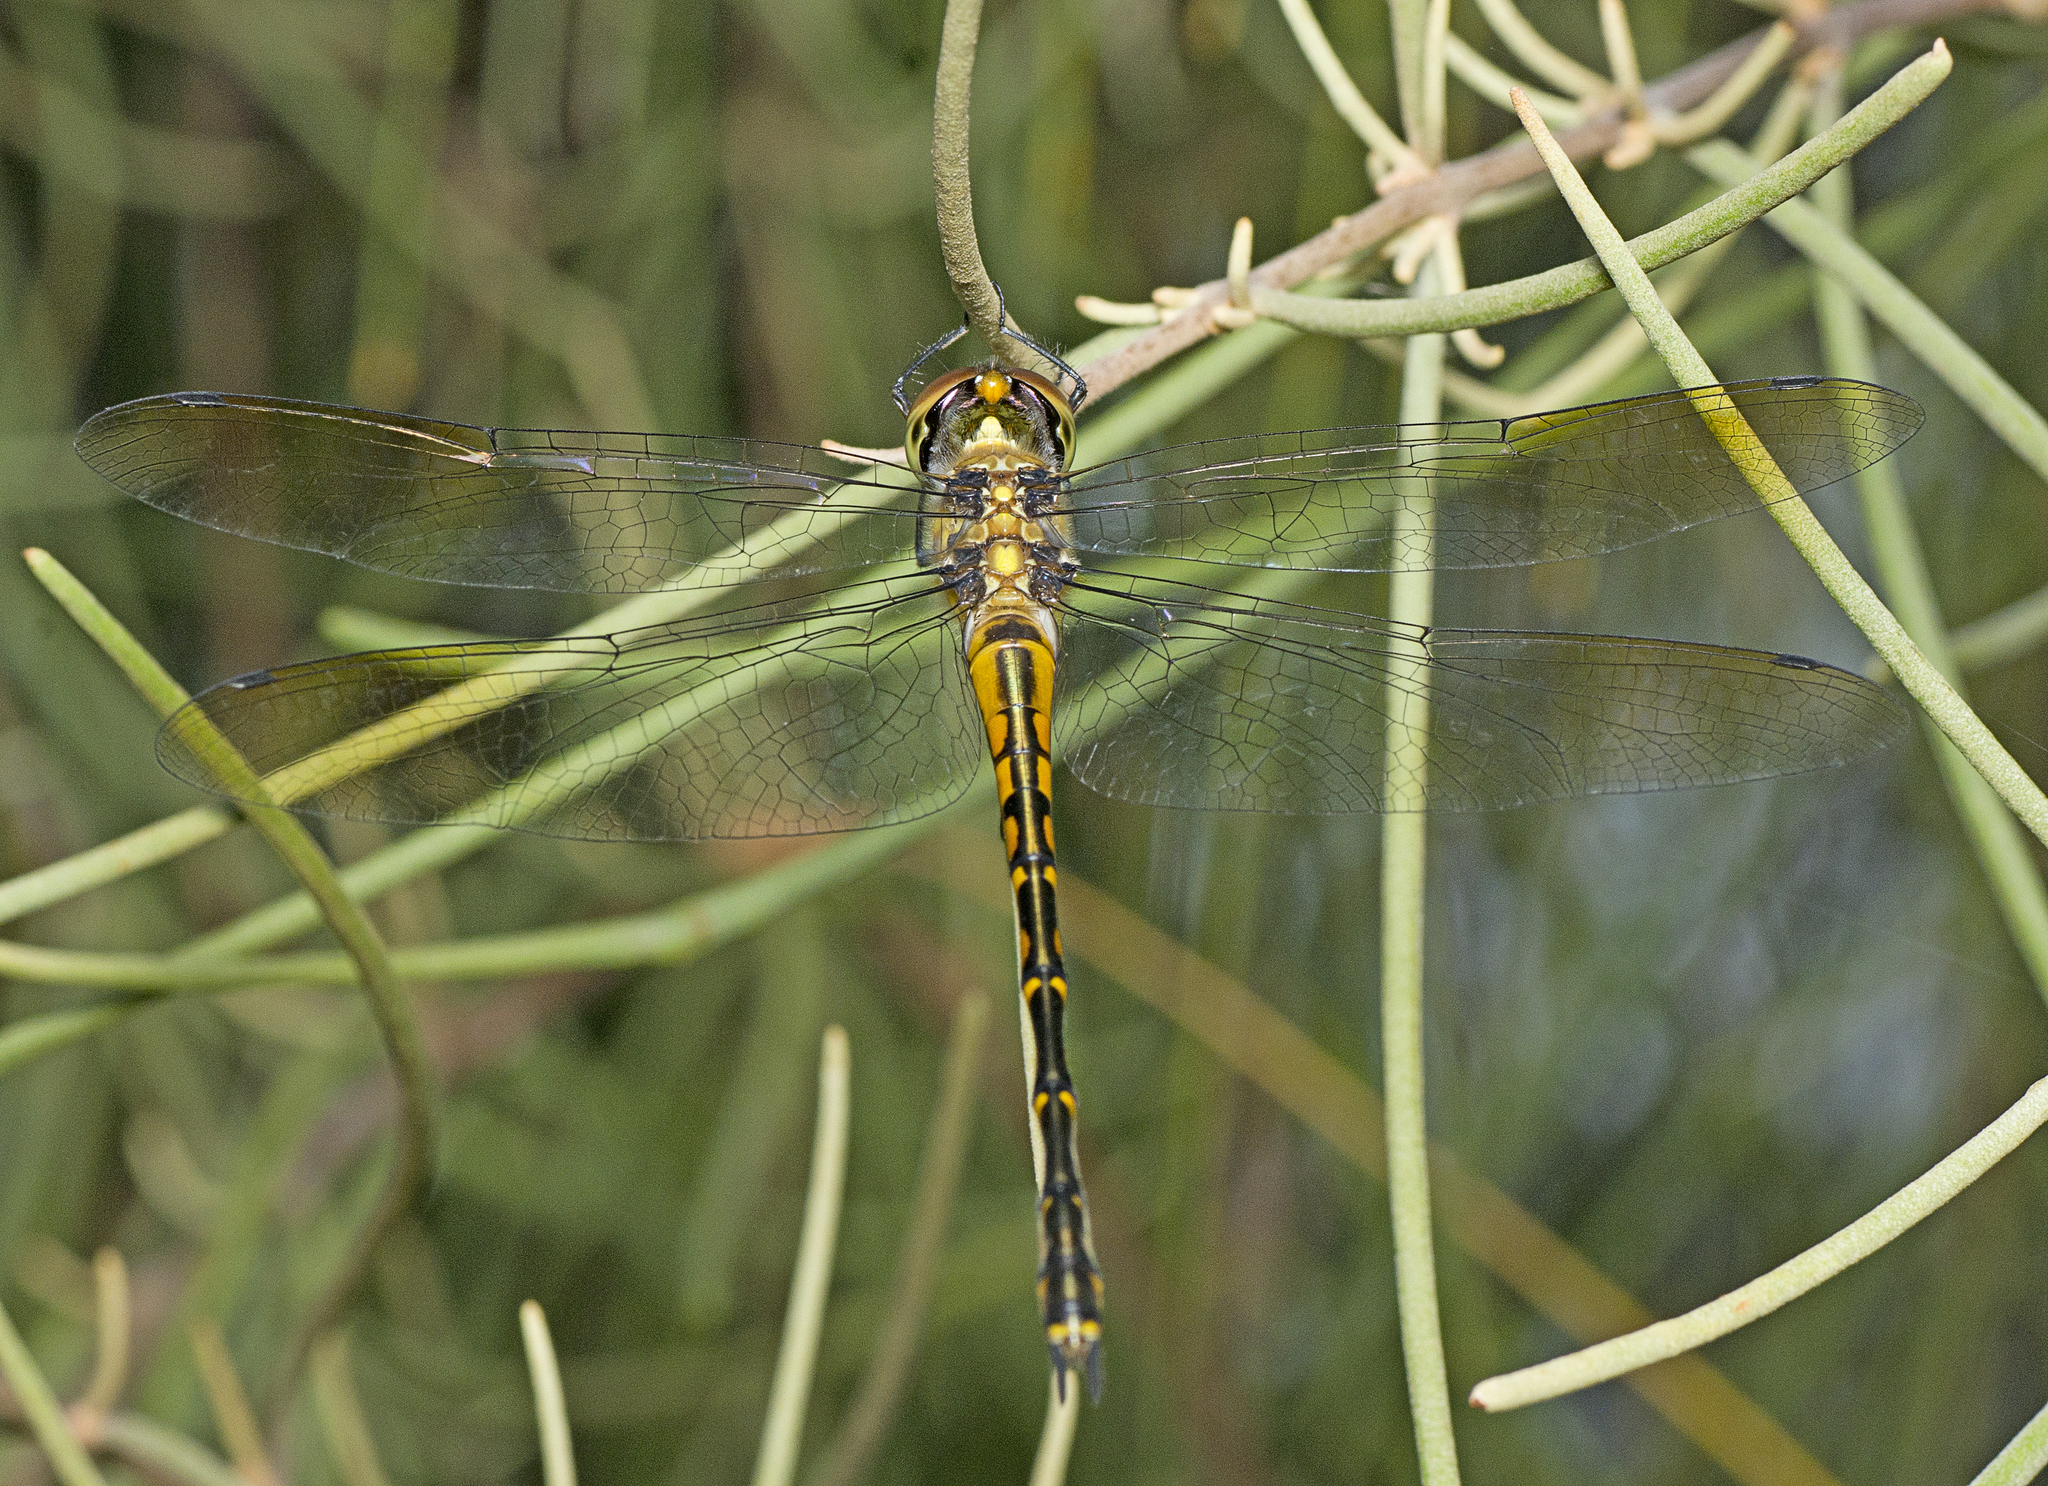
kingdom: Animalia
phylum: Arthropoda
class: Insecta
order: Odonata
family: Corduliidae
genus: Hemicordulia
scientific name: Hemicordulia australiae
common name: Sentry dragonfly
